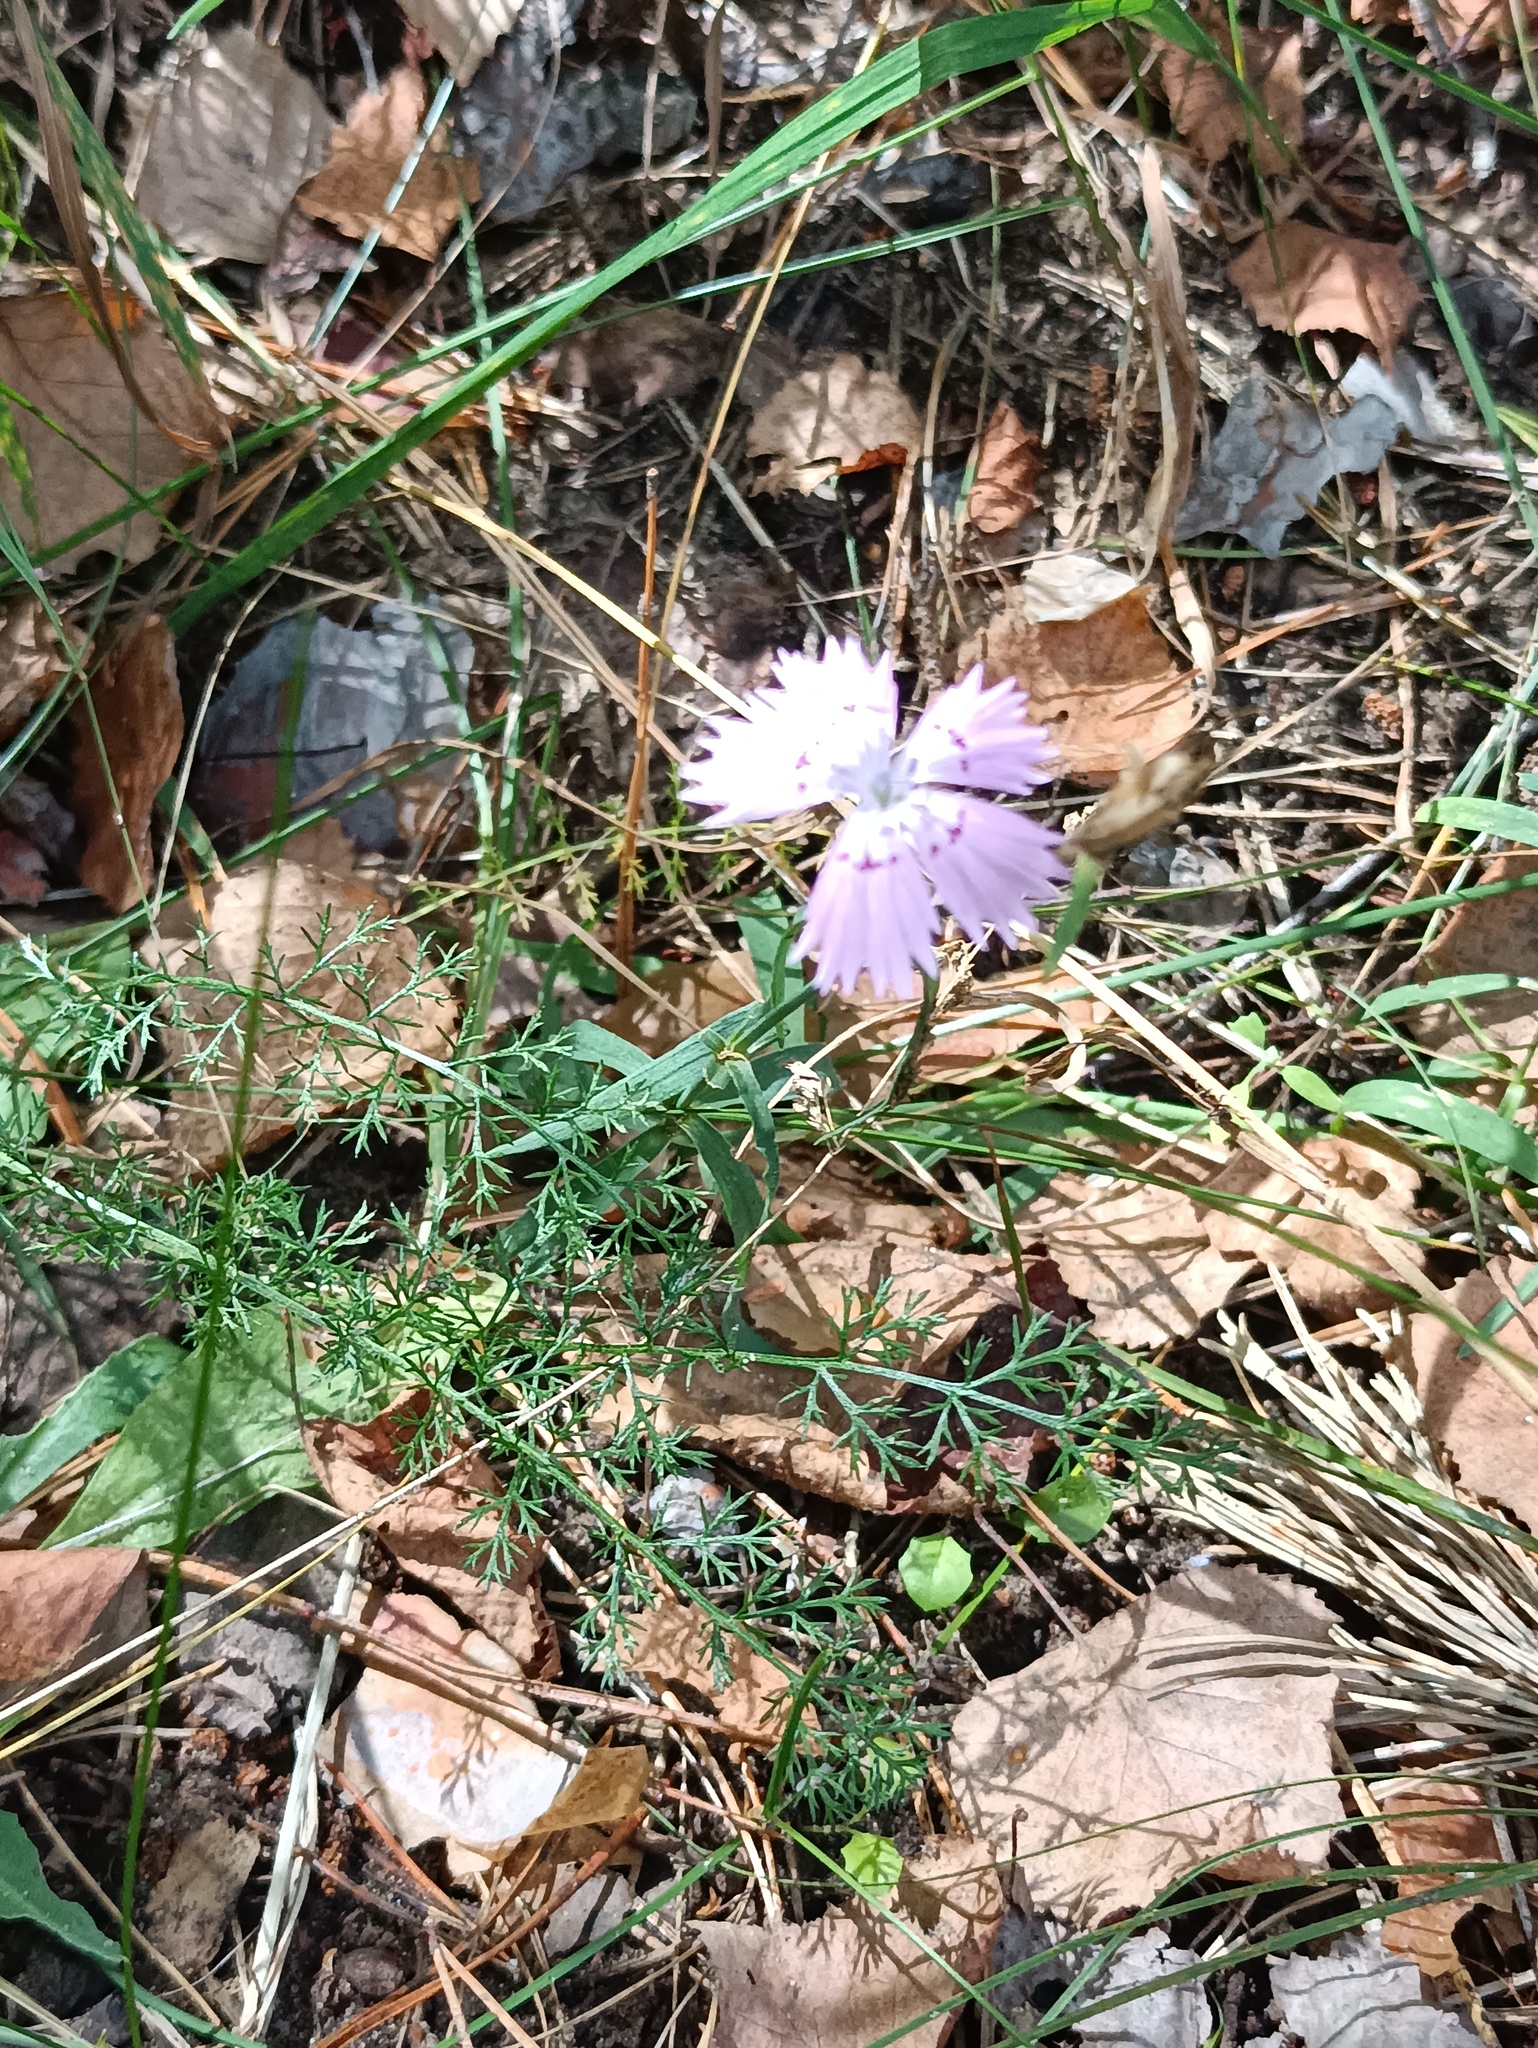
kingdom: Plantae
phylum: Tracheophyta
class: Magnoliopsida
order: Caryophyllales
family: Caryophyllaceae
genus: Dianthus
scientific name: Dianthus chinensis
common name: Rainbow pink
